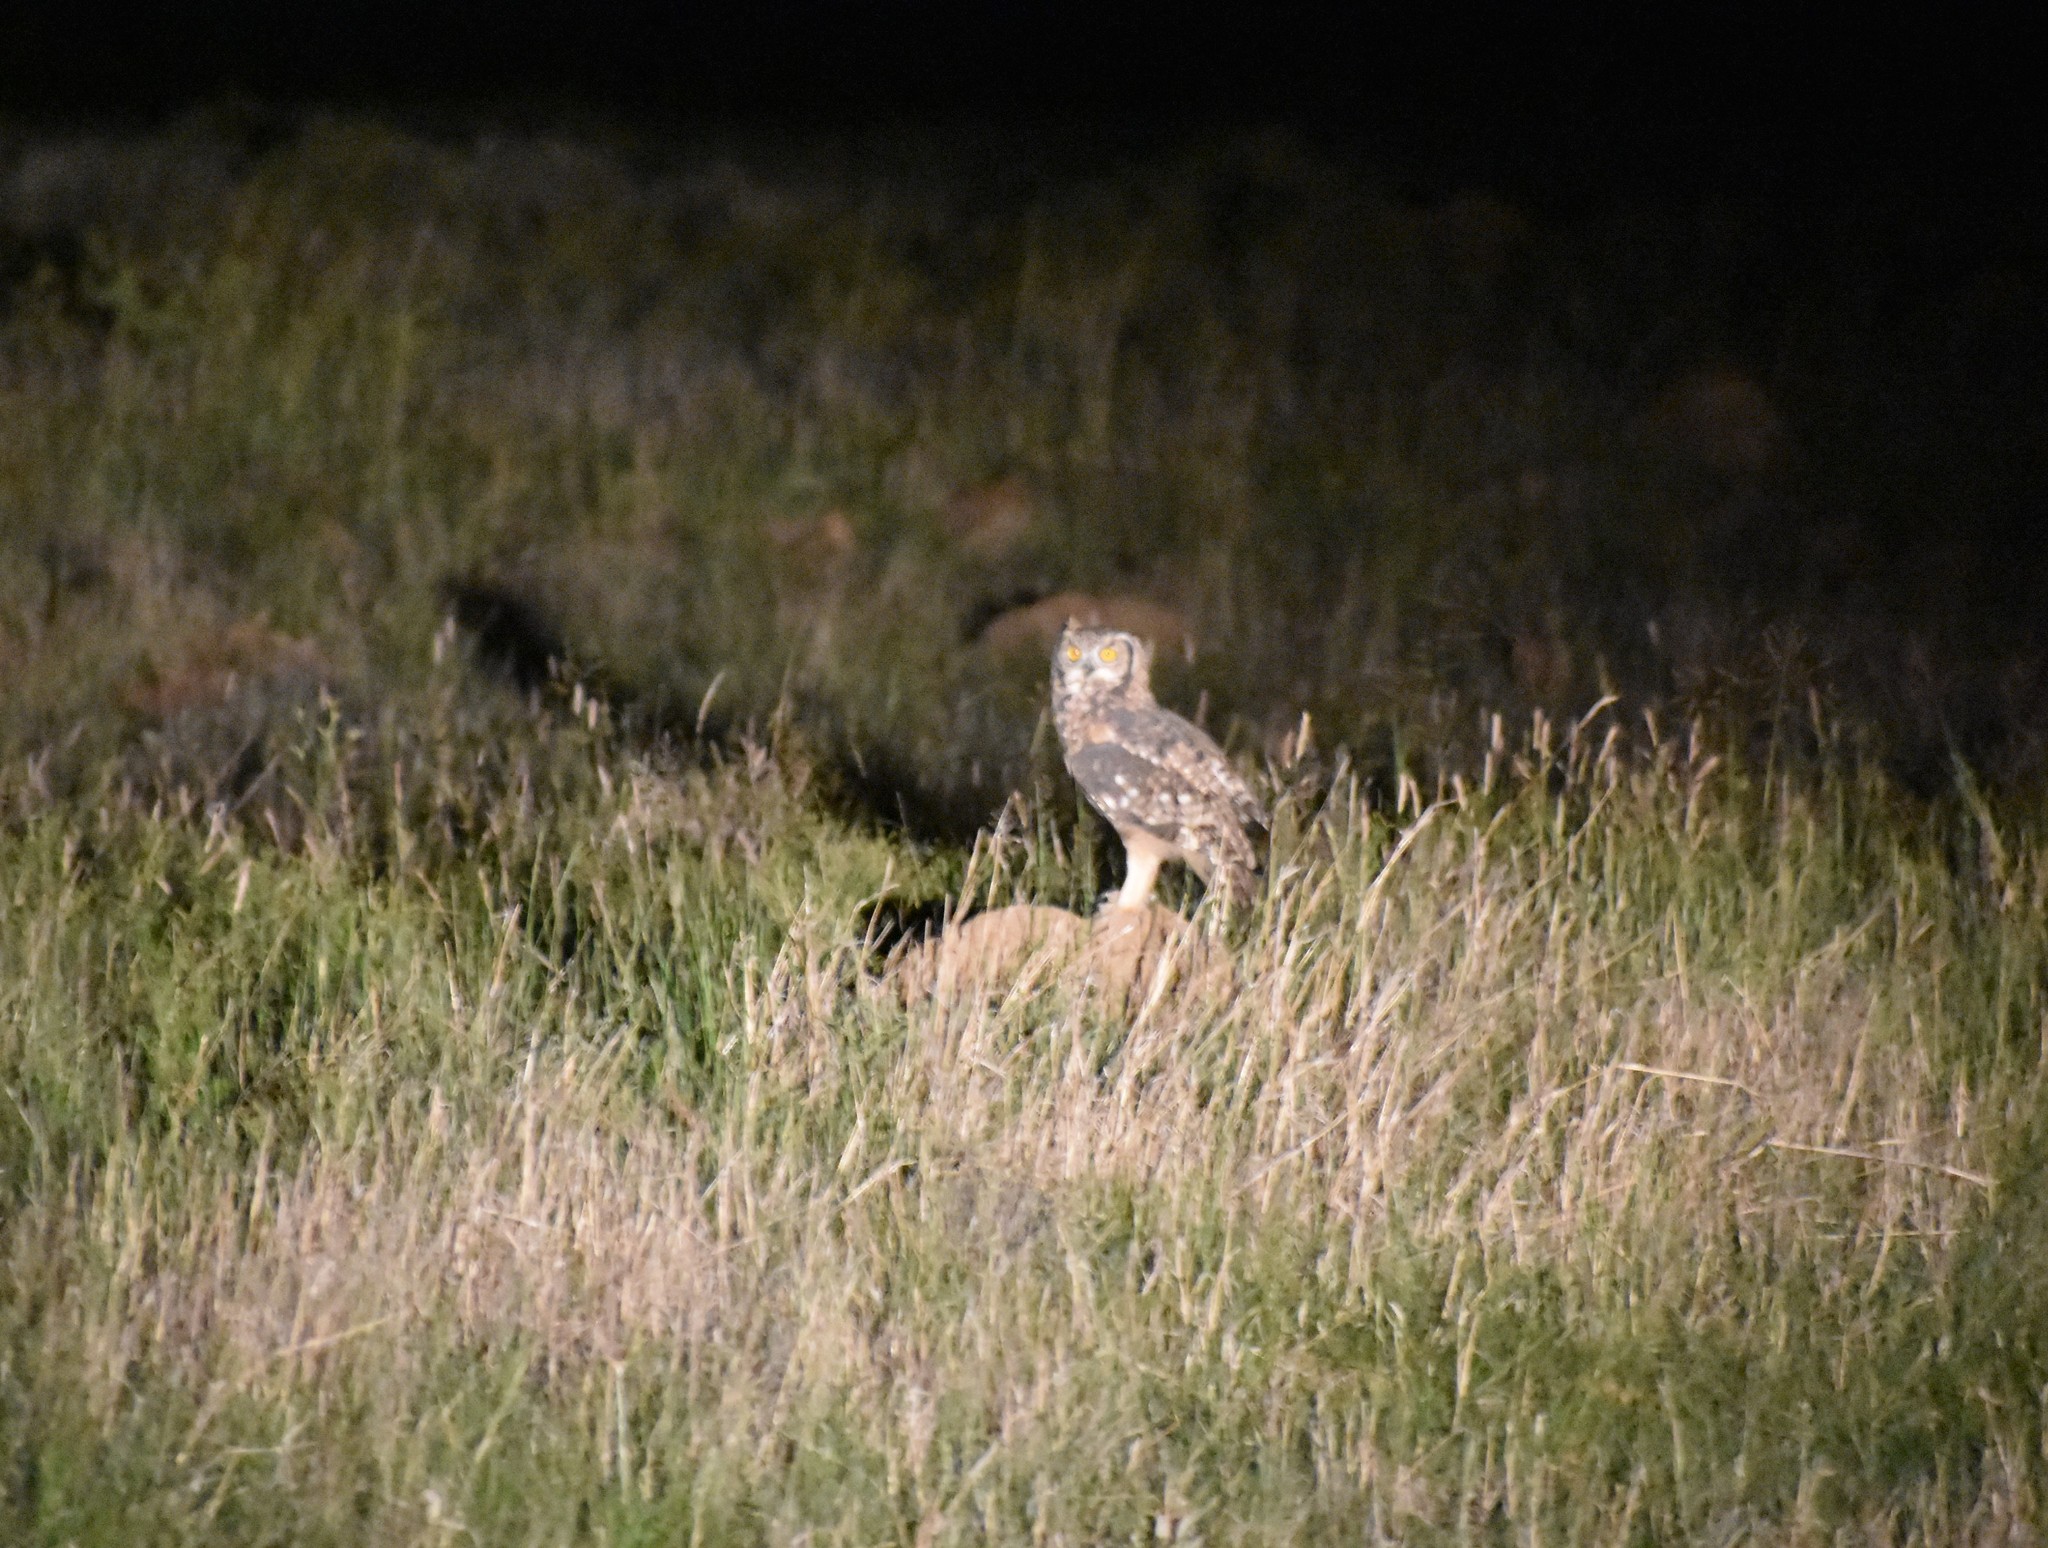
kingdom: Animalia
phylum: Chordata
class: Aves
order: Strigiformes
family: Strigidae
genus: Bubo
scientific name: Bubo africanus
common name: Spotted eagle-owl
